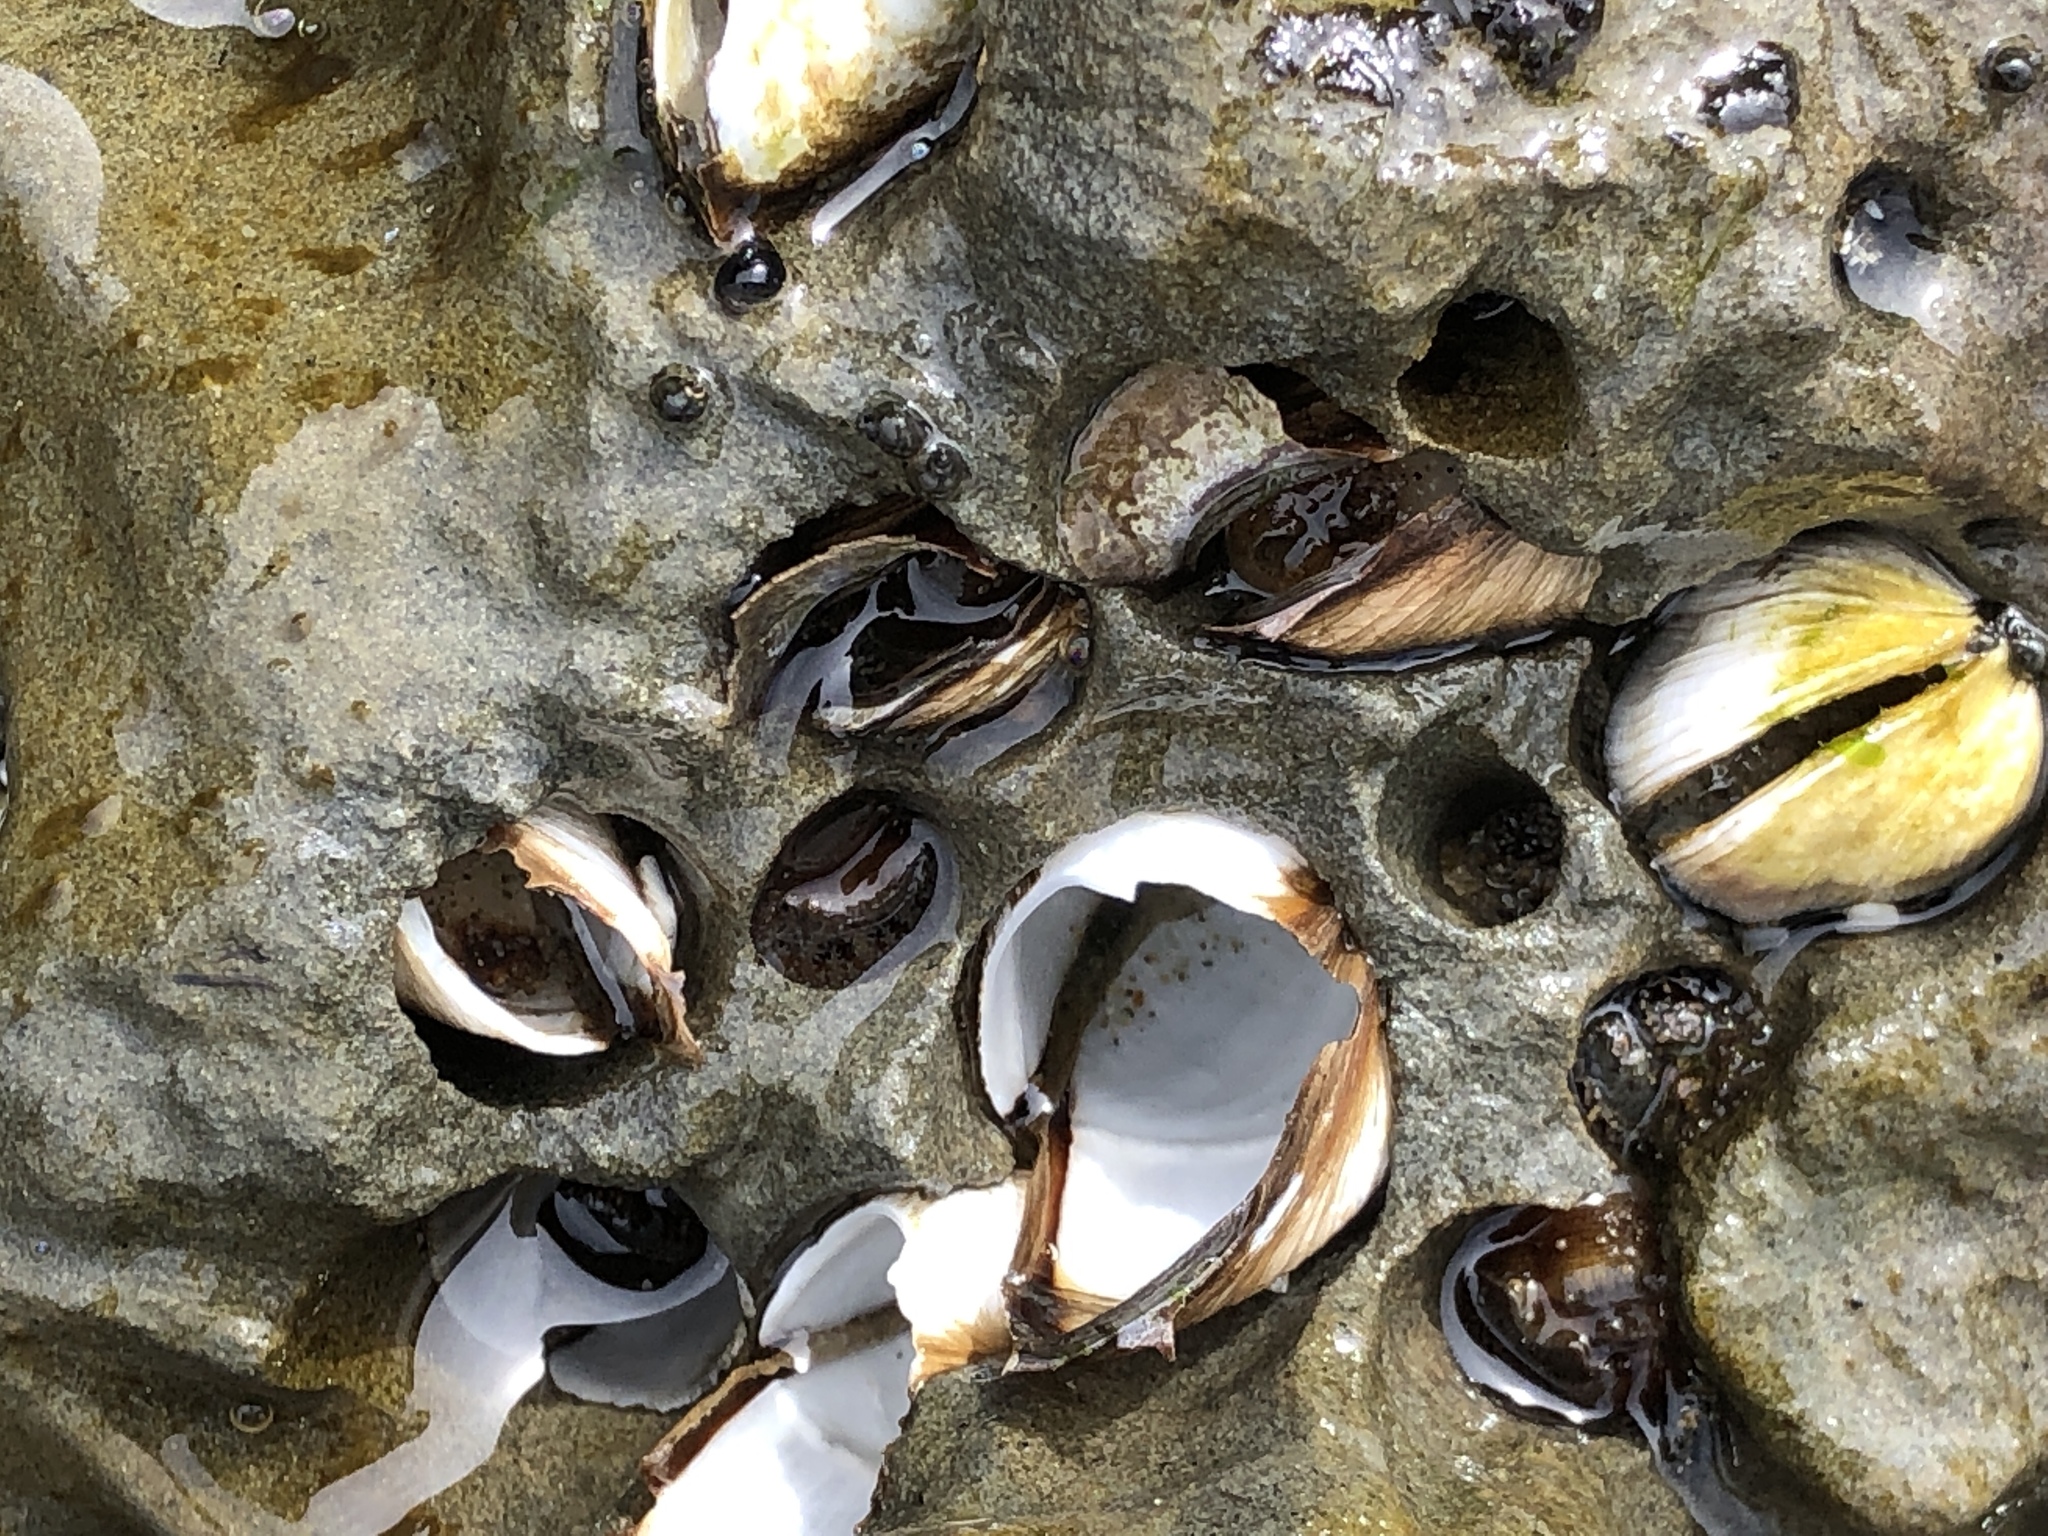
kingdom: Animalia
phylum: Mollusca
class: Bivalvia
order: Venerida
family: Veneridae
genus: Petricola
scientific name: Petricola carditoides
